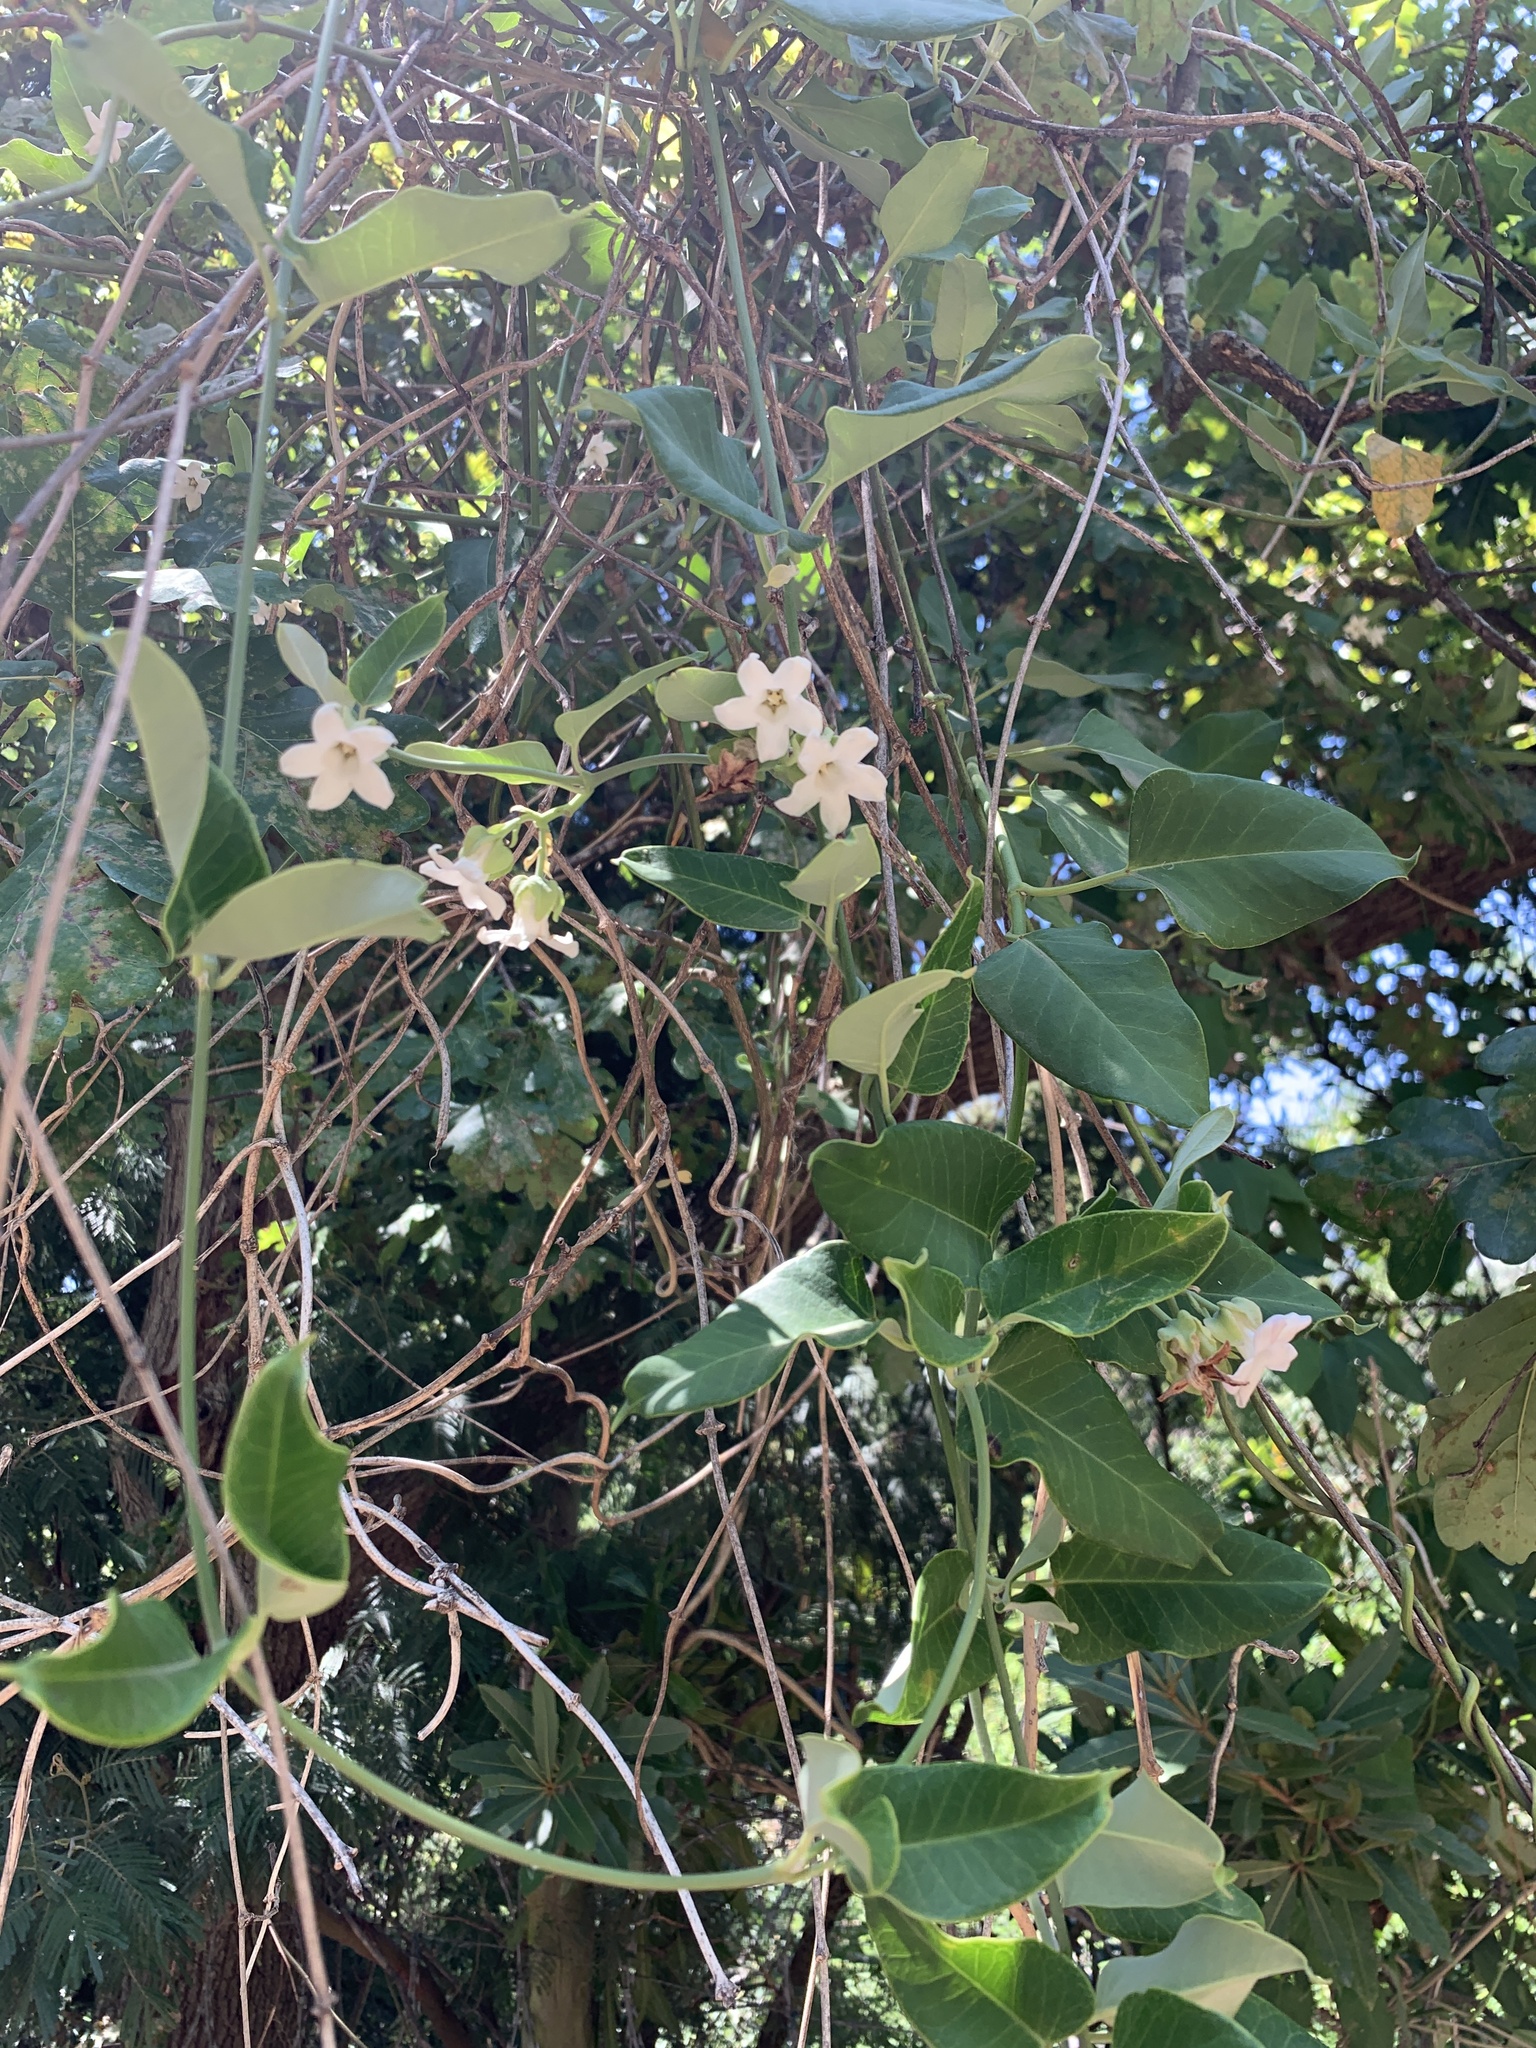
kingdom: Plantae
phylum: Tracheophyta
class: Magnoliopsida
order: Gentianales
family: Apocynaceae
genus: Araujia
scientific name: Araujia sericifera
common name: White bladderflower
